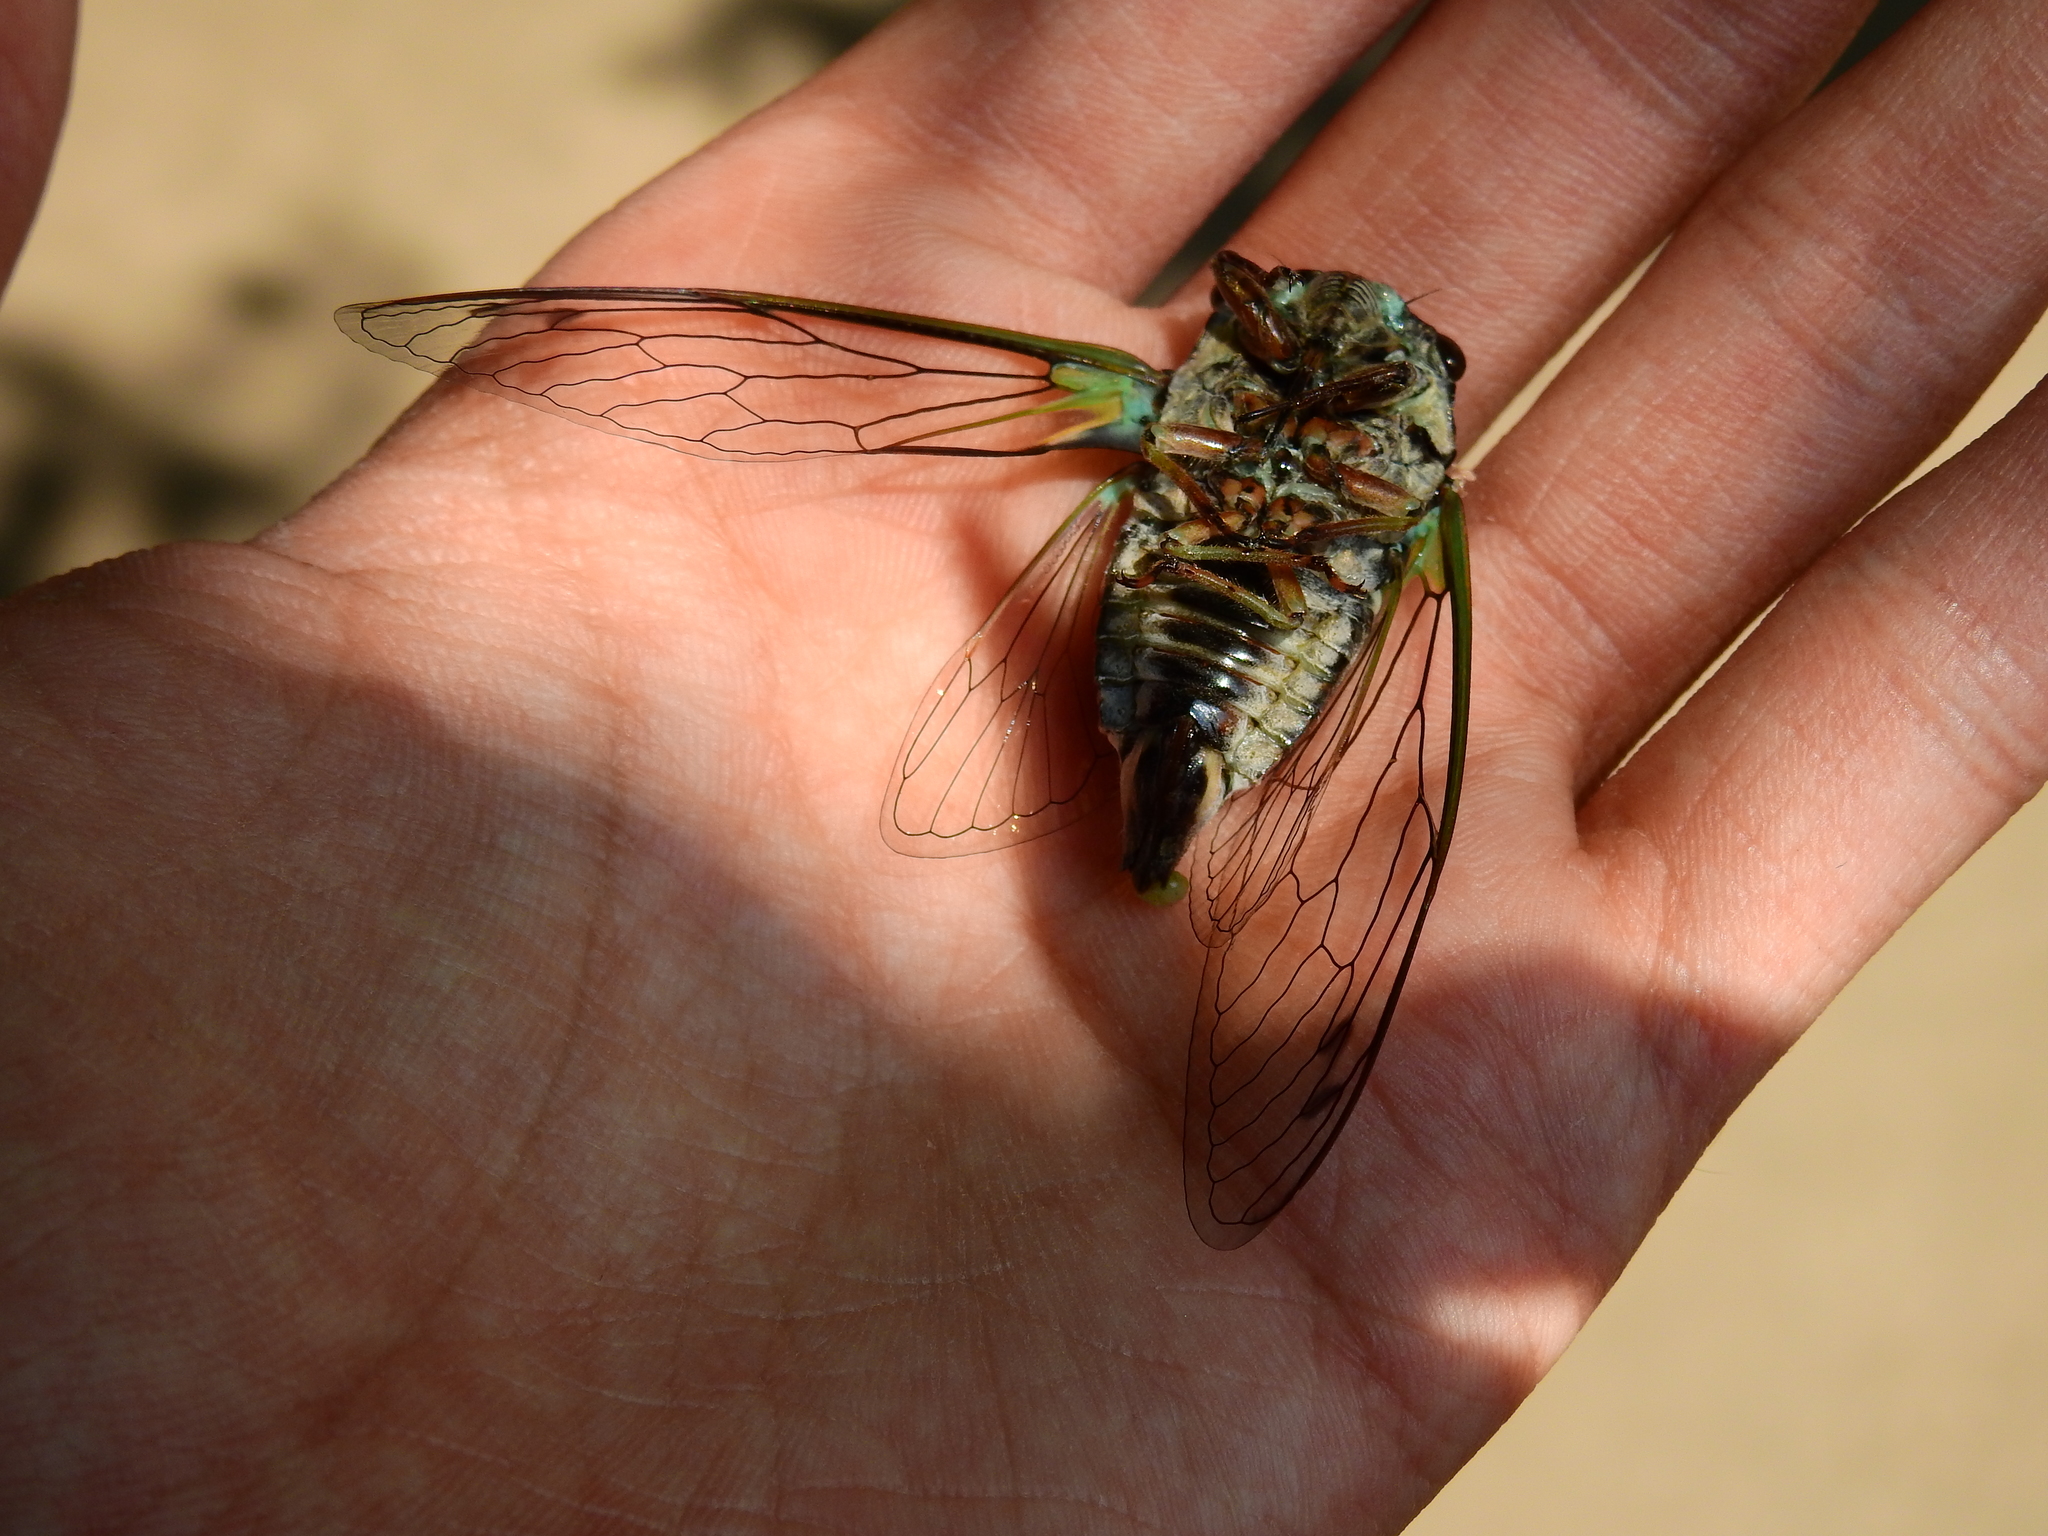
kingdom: Animalia
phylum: Arthropoda
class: Insecta
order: Hemiptera
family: Cicadidae
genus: Neotibicen
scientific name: Neotibicen lyricen
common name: Lyric cicada
